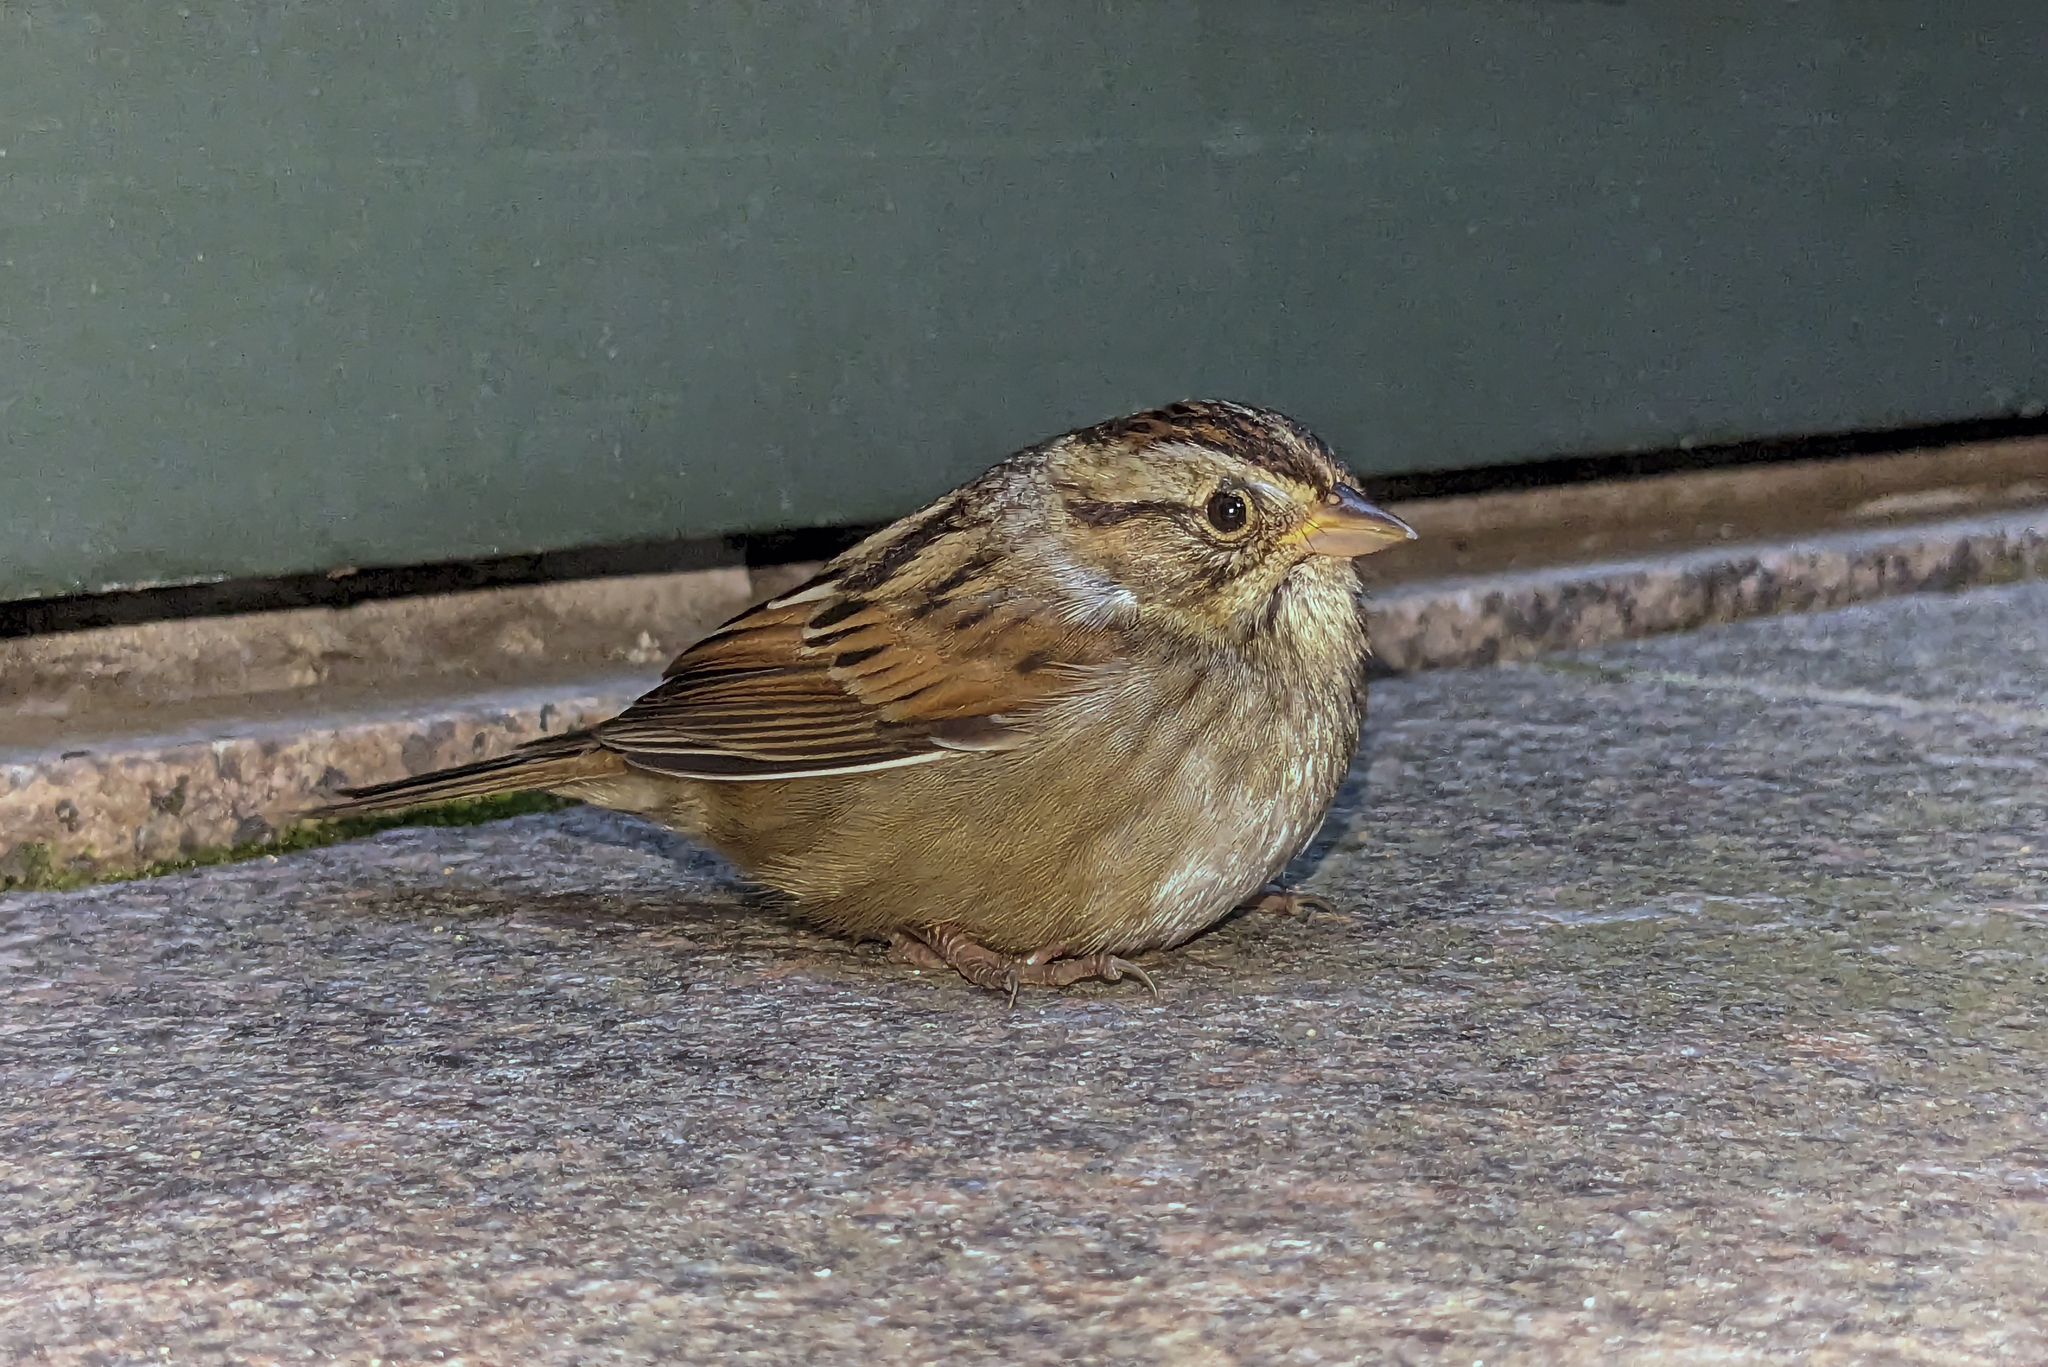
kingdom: Animalia
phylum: Chordata
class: Aves
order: Passeriformes
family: Passerellidae
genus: Melospiza
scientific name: Melospiza georgiana
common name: Swamp sparrow
